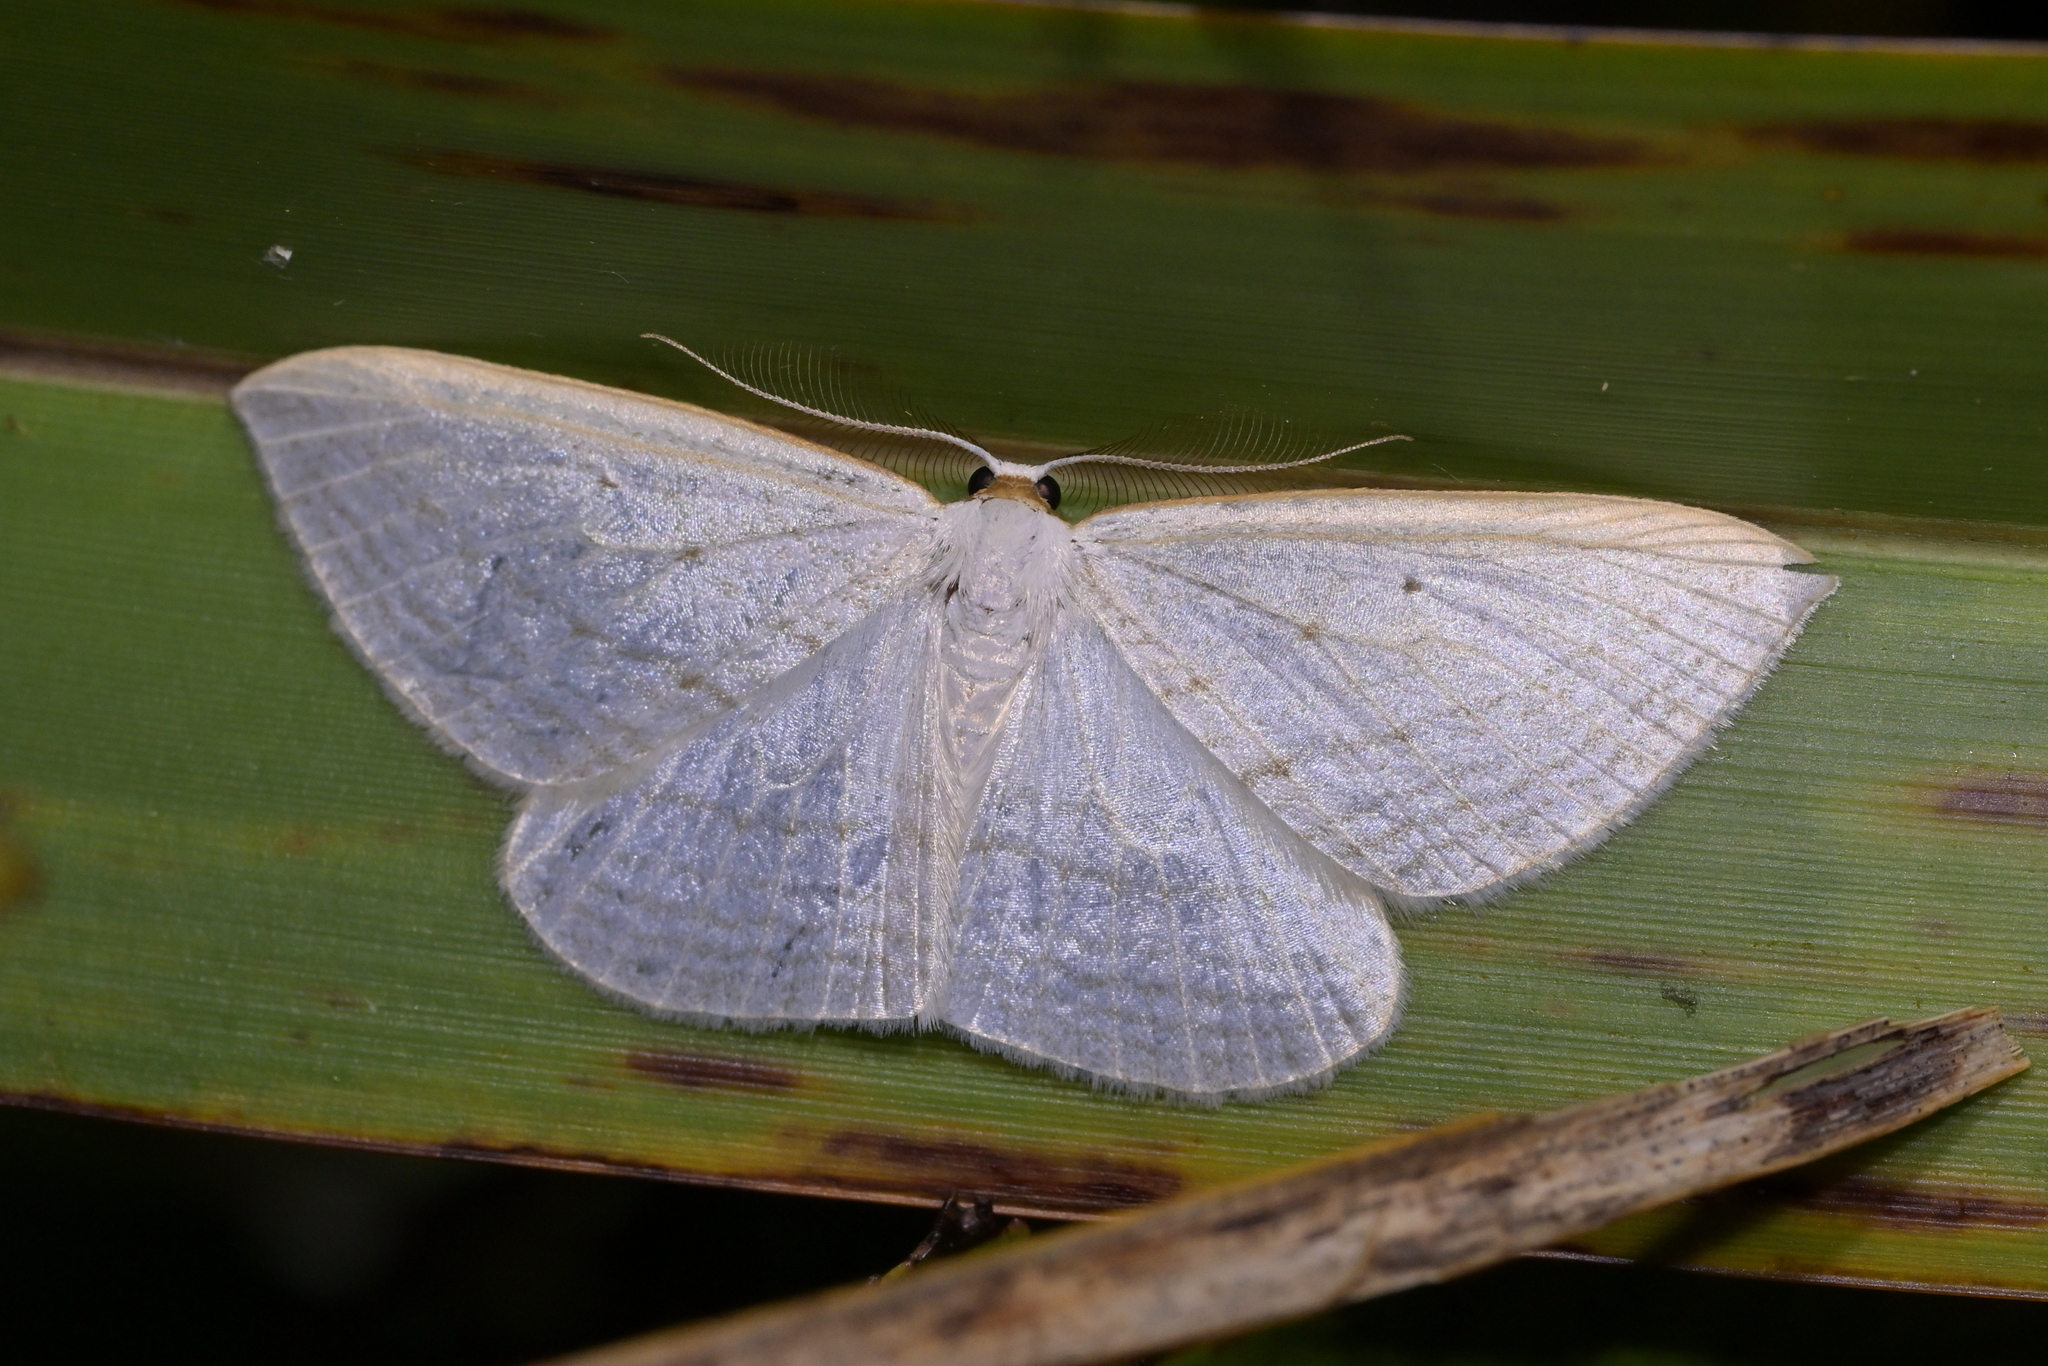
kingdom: Animalia
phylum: Arthropoda
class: Insecta
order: Lepidoptera
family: Geometridae
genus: Orthoclydon
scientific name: Orthoclydon praefectata
